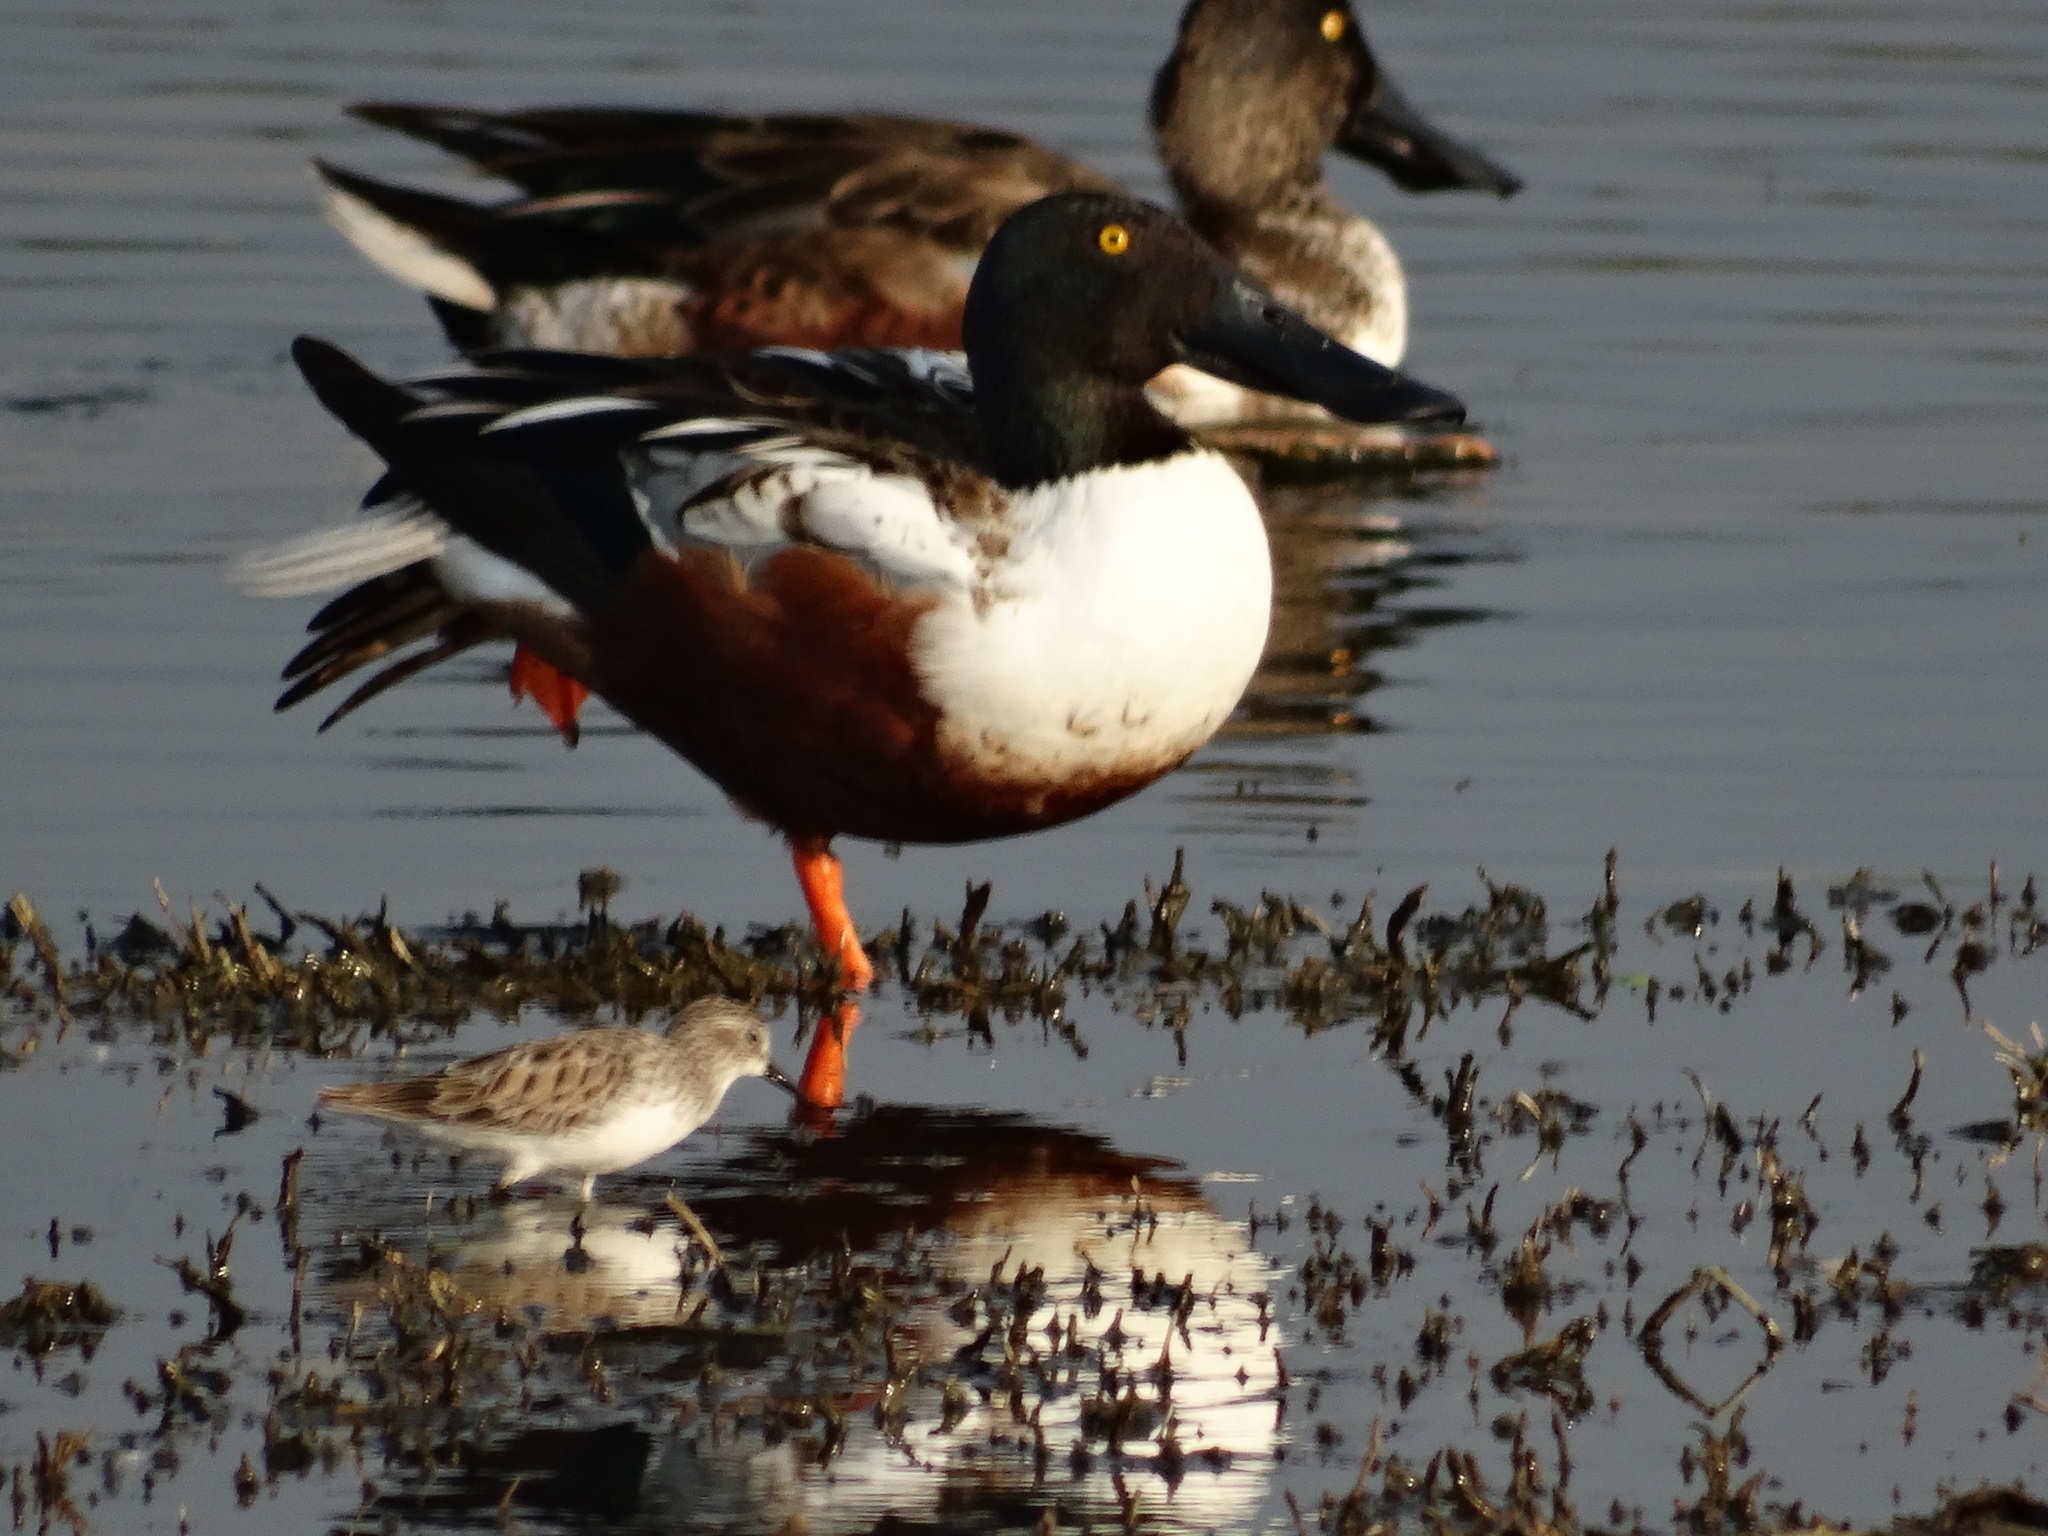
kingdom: Animalia
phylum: Chordata
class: Aves
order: Anseriformes
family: Anatidae
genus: Spatula
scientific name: Spatula clypeata
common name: Northern shoveler
